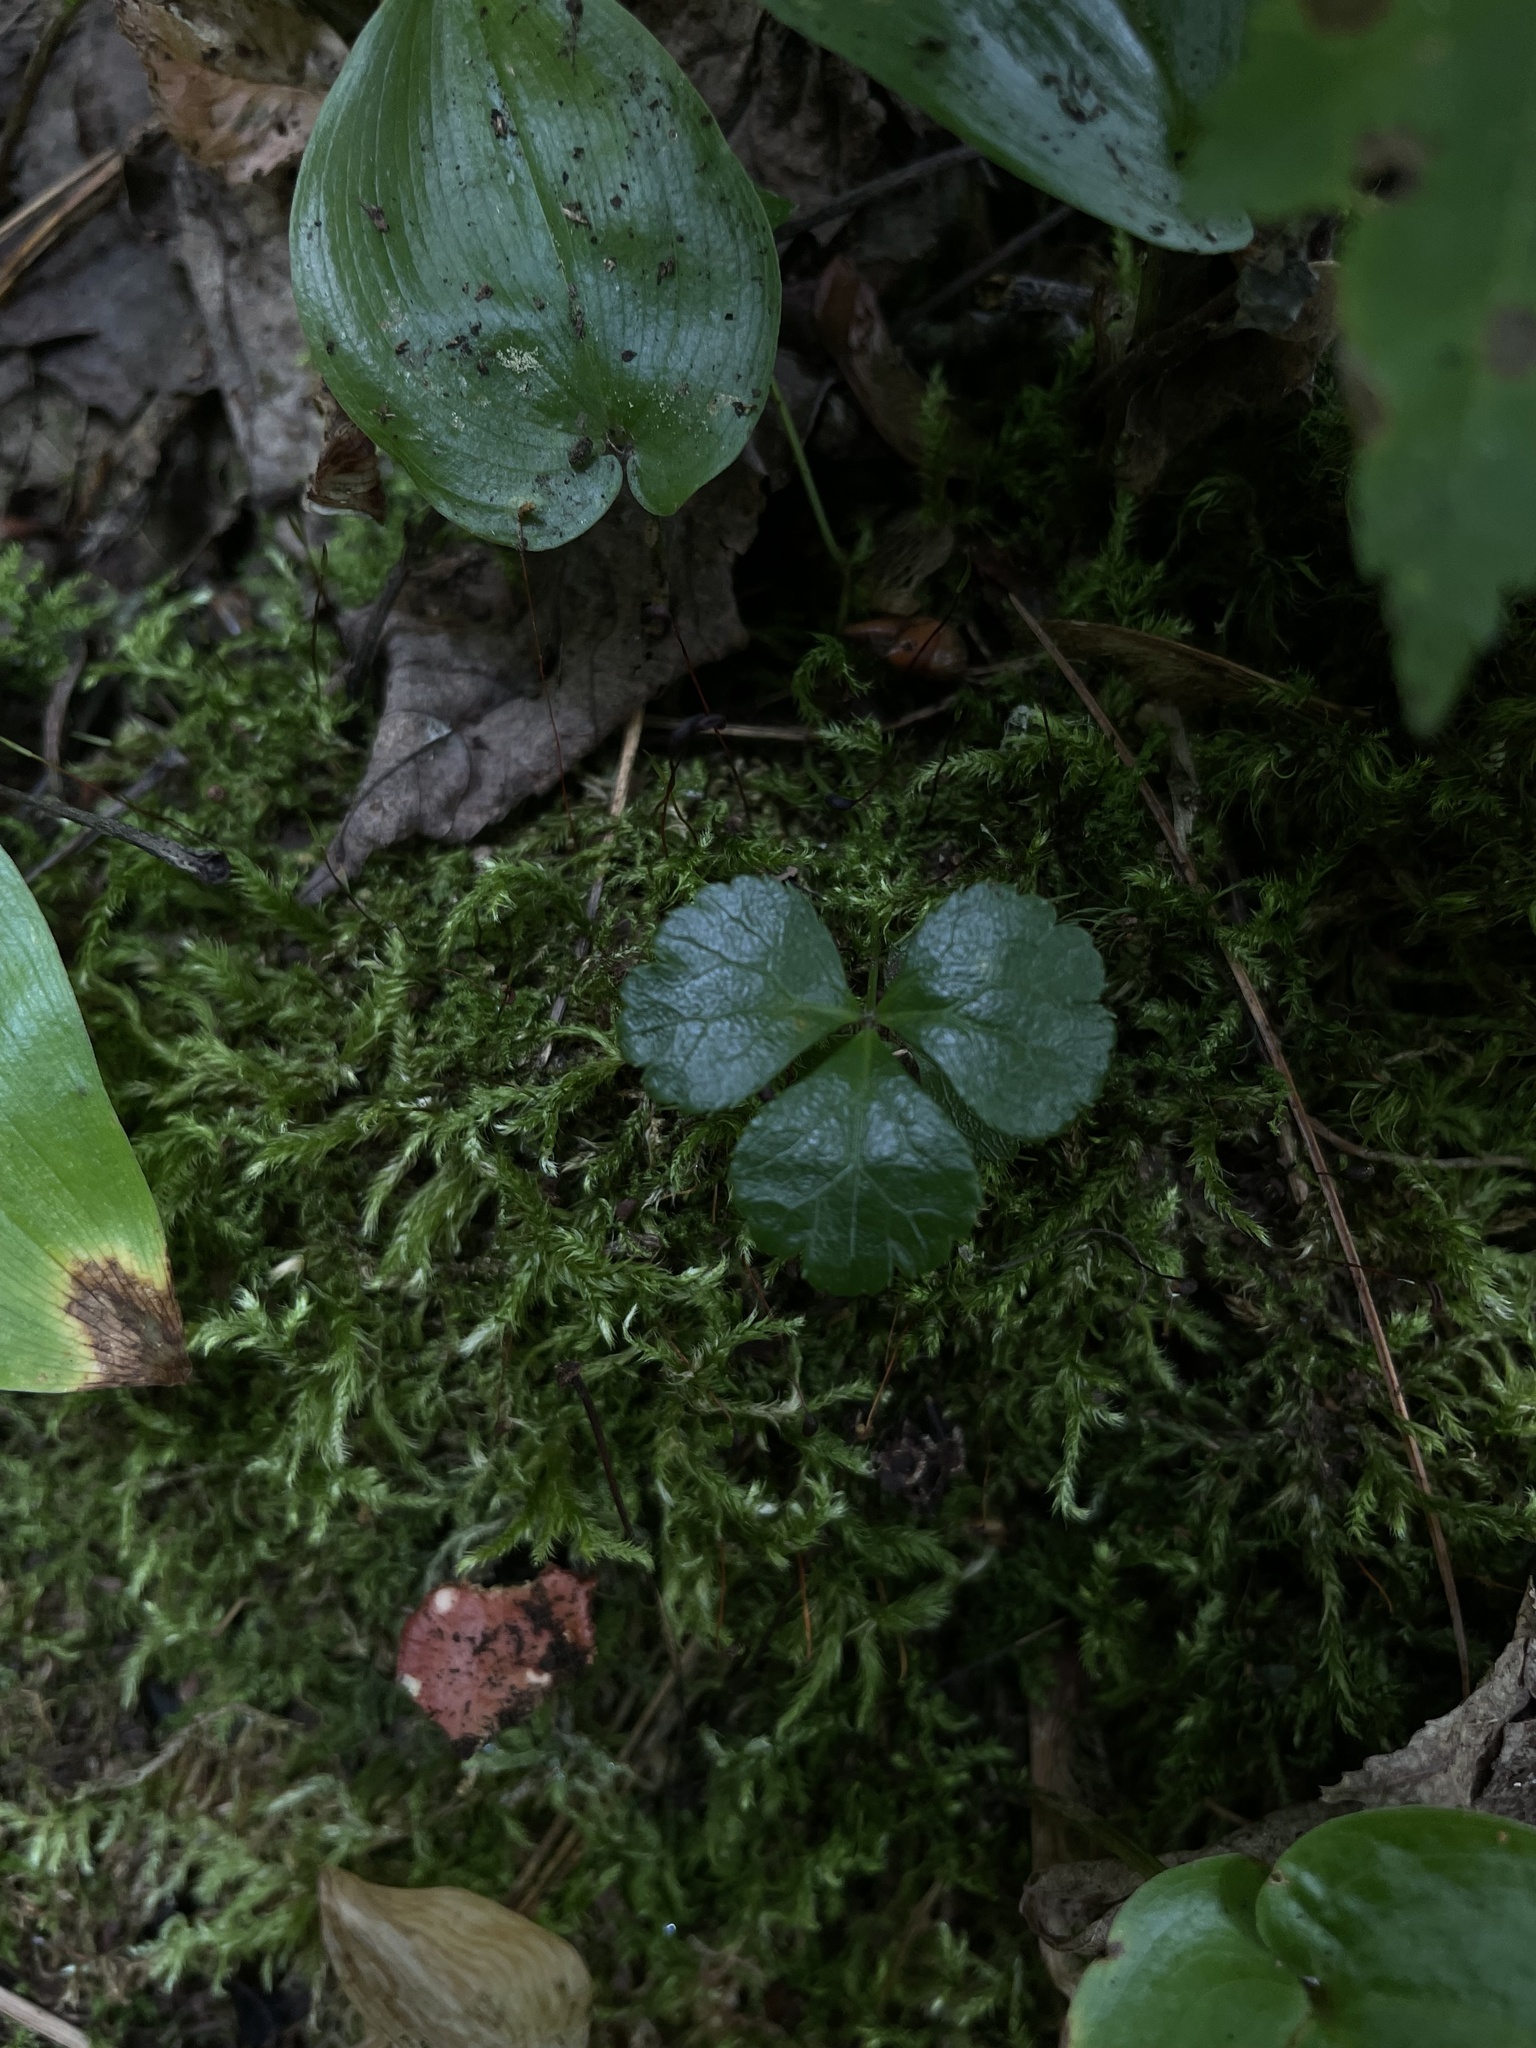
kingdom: Plantae
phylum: Tracheophyta
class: Magnoliopsida
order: Ranunculales
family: Ranunculaceae
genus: Coptis
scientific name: Coptis trifolia
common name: Canker-root
